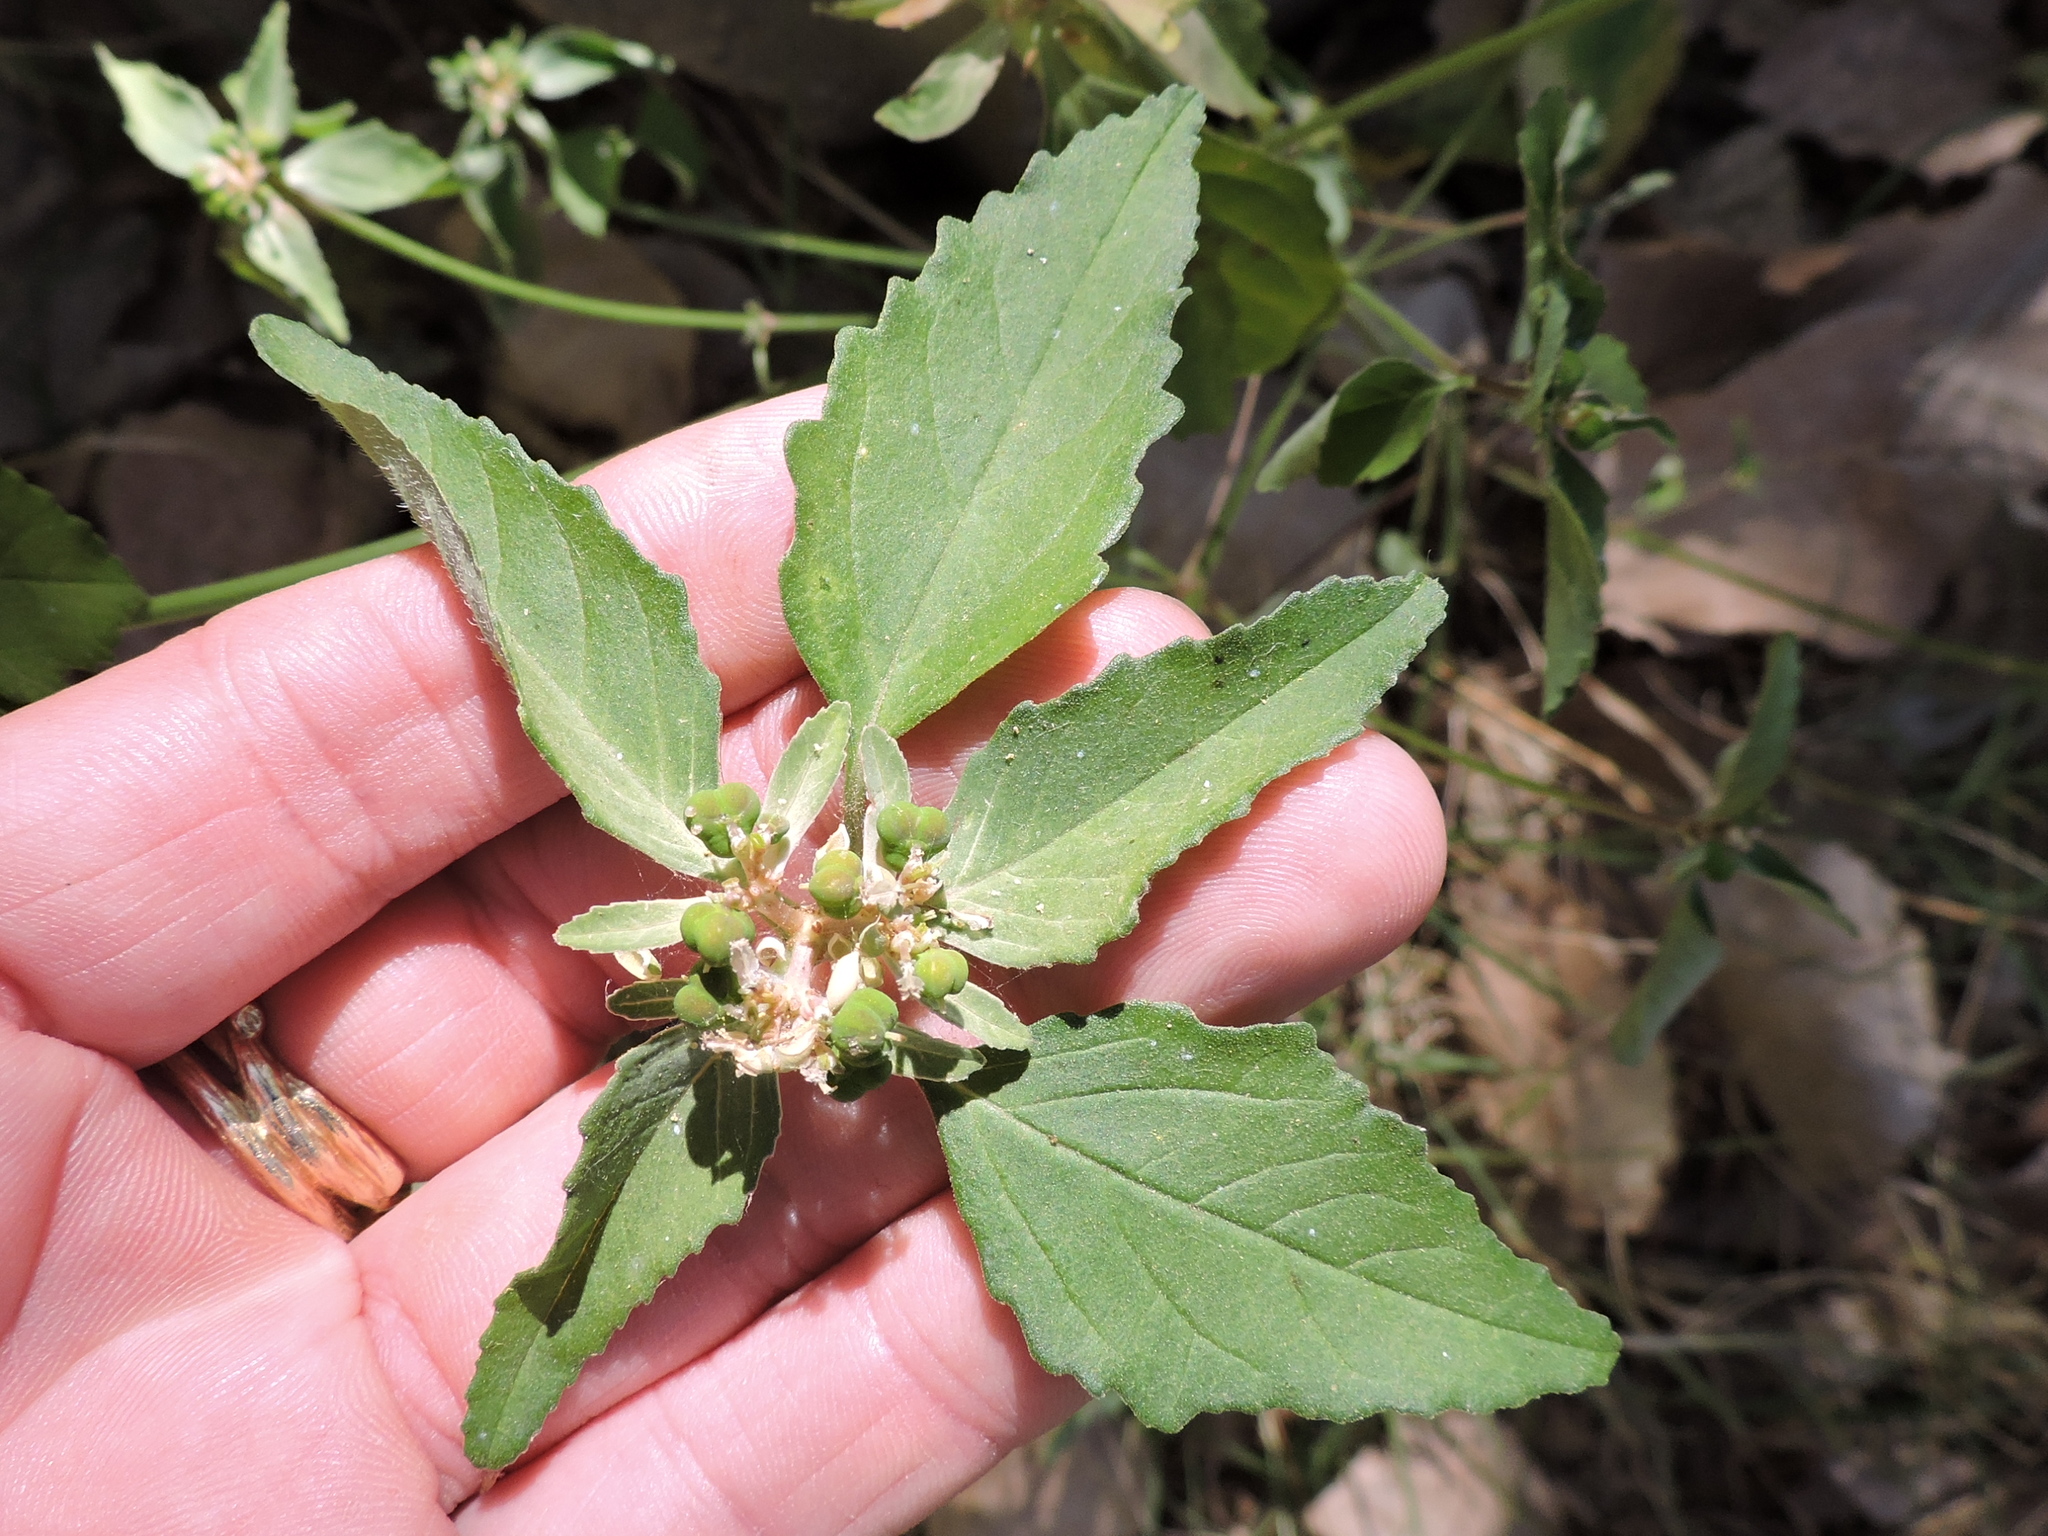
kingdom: Plantae
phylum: Tracheophyta
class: Magnoliopsida
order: Malpighiales
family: Euphorbiaceae
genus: Euphorbia
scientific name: Euphorbia dentata
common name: Dentate spurge
